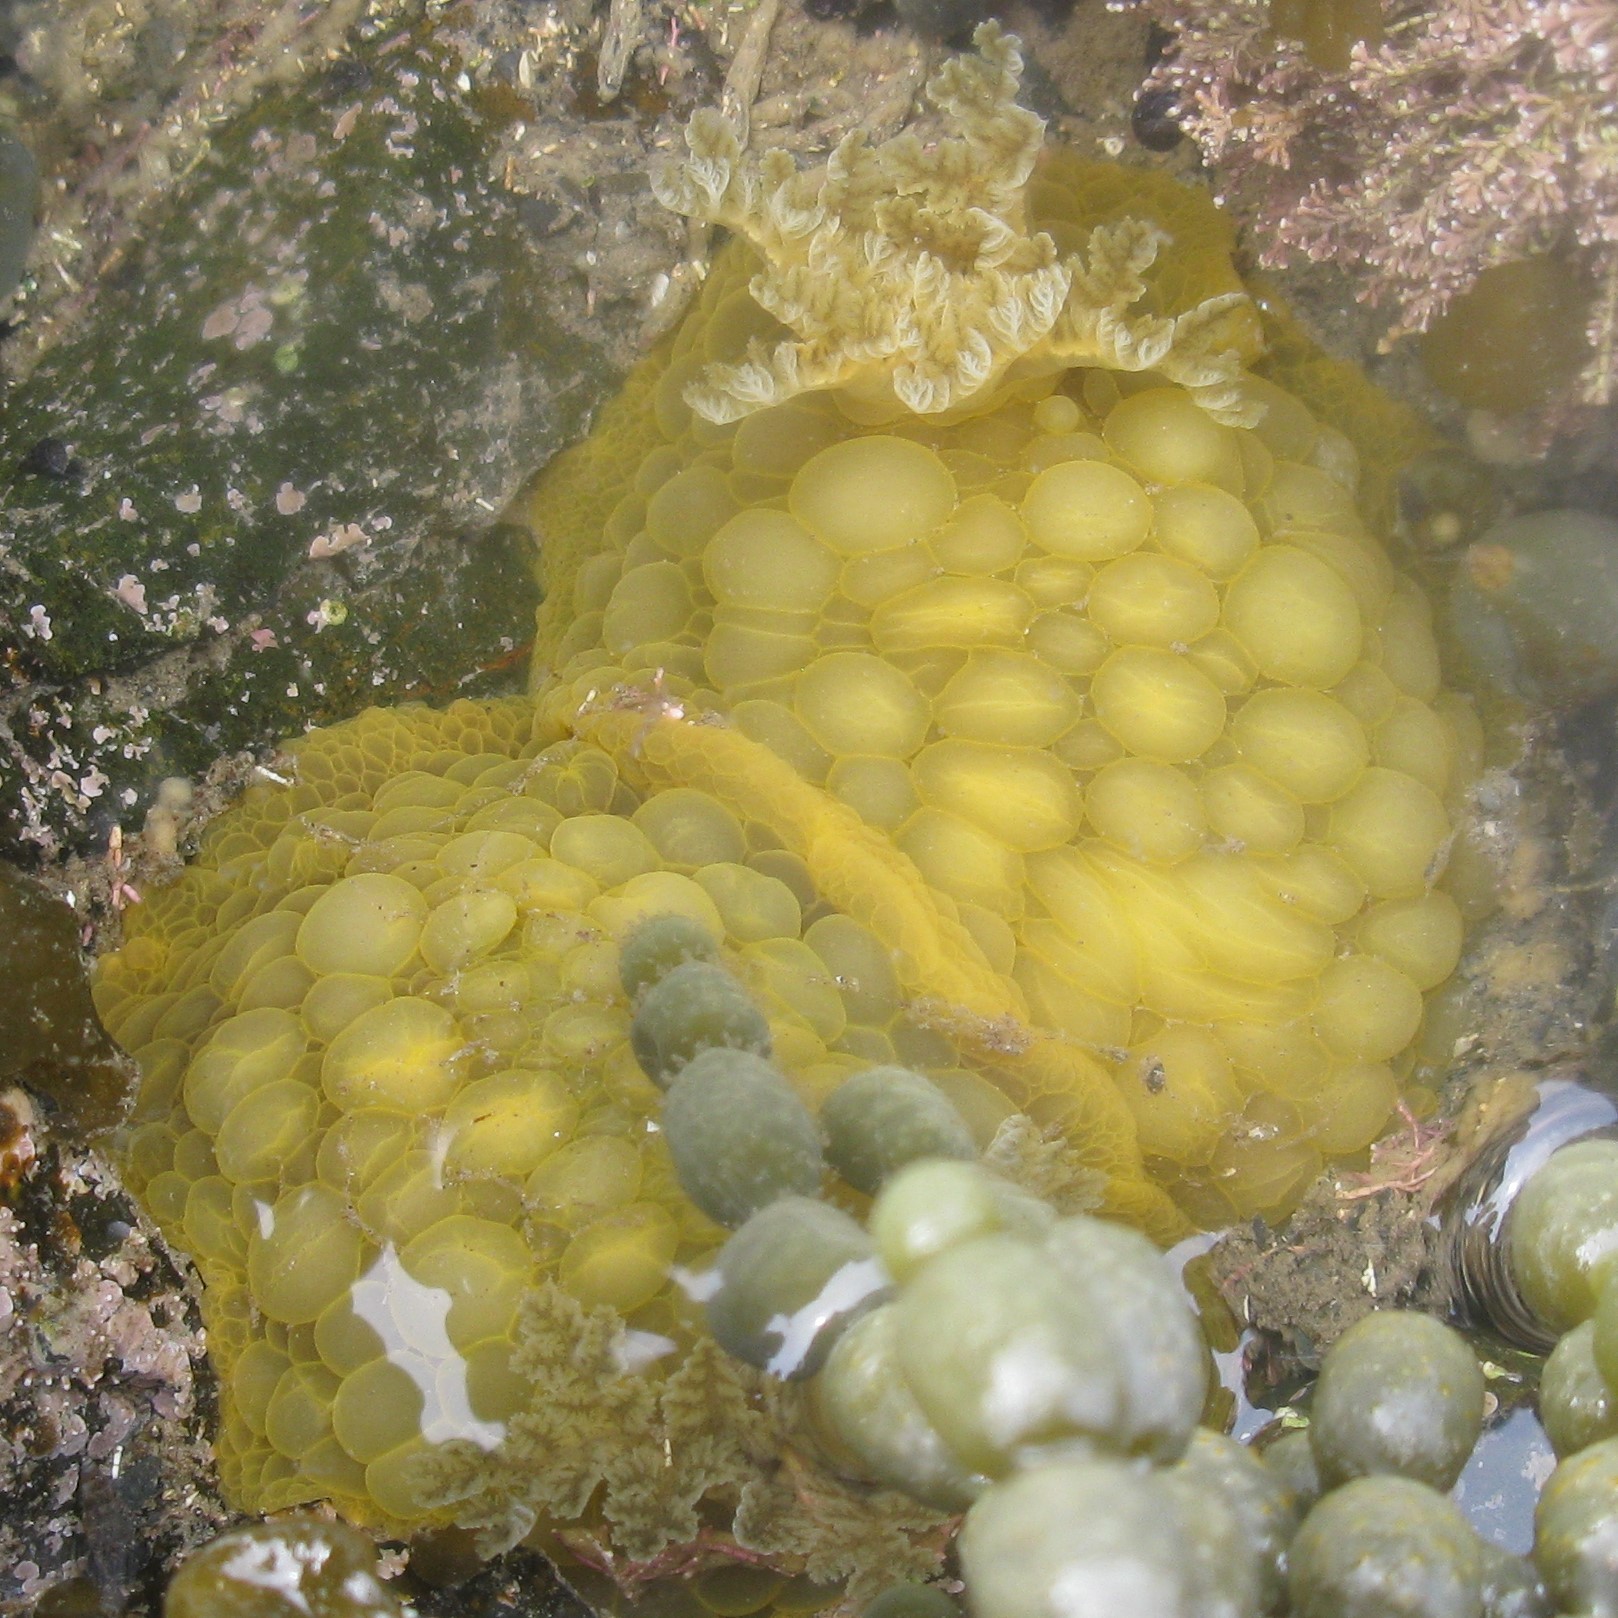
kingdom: Animalia
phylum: Mollusca
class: Gastropoda
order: Nudibranchia
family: Dorididae
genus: Doris
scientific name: Doris wellingtonensis
